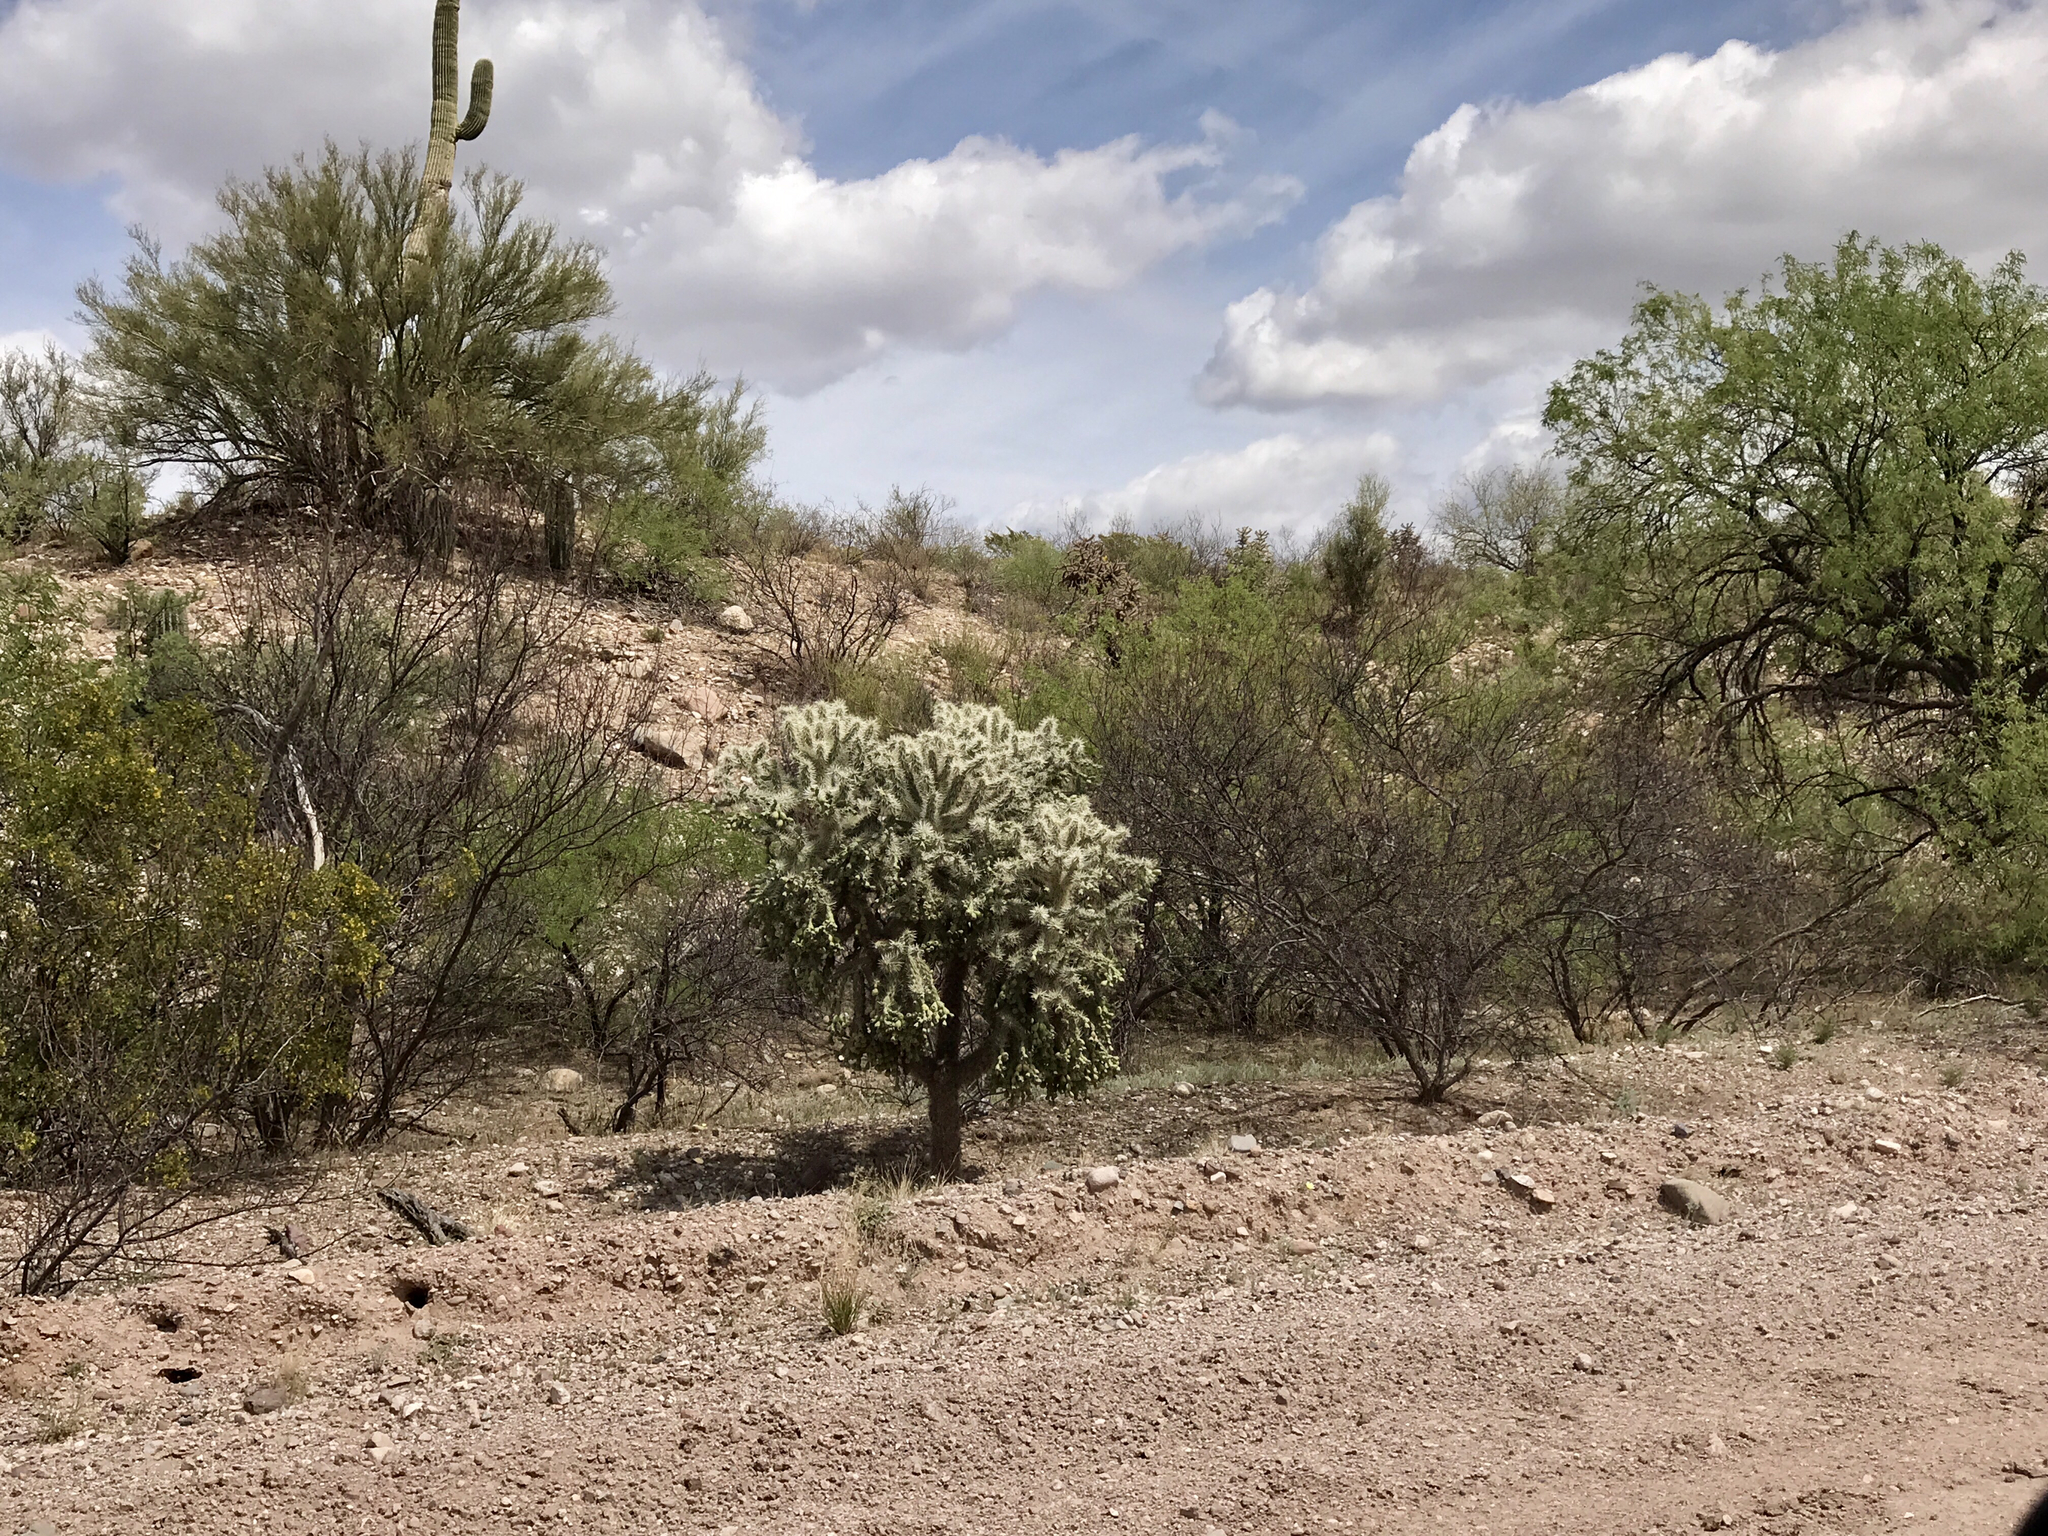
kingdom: Plantae
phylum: Tracheophyta
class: Magnoliopsida
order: Caryophyllales
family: Cactaceae
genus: Cylindropuntia
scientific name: Cylindropuntia fulgida
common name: Jumping cholla
